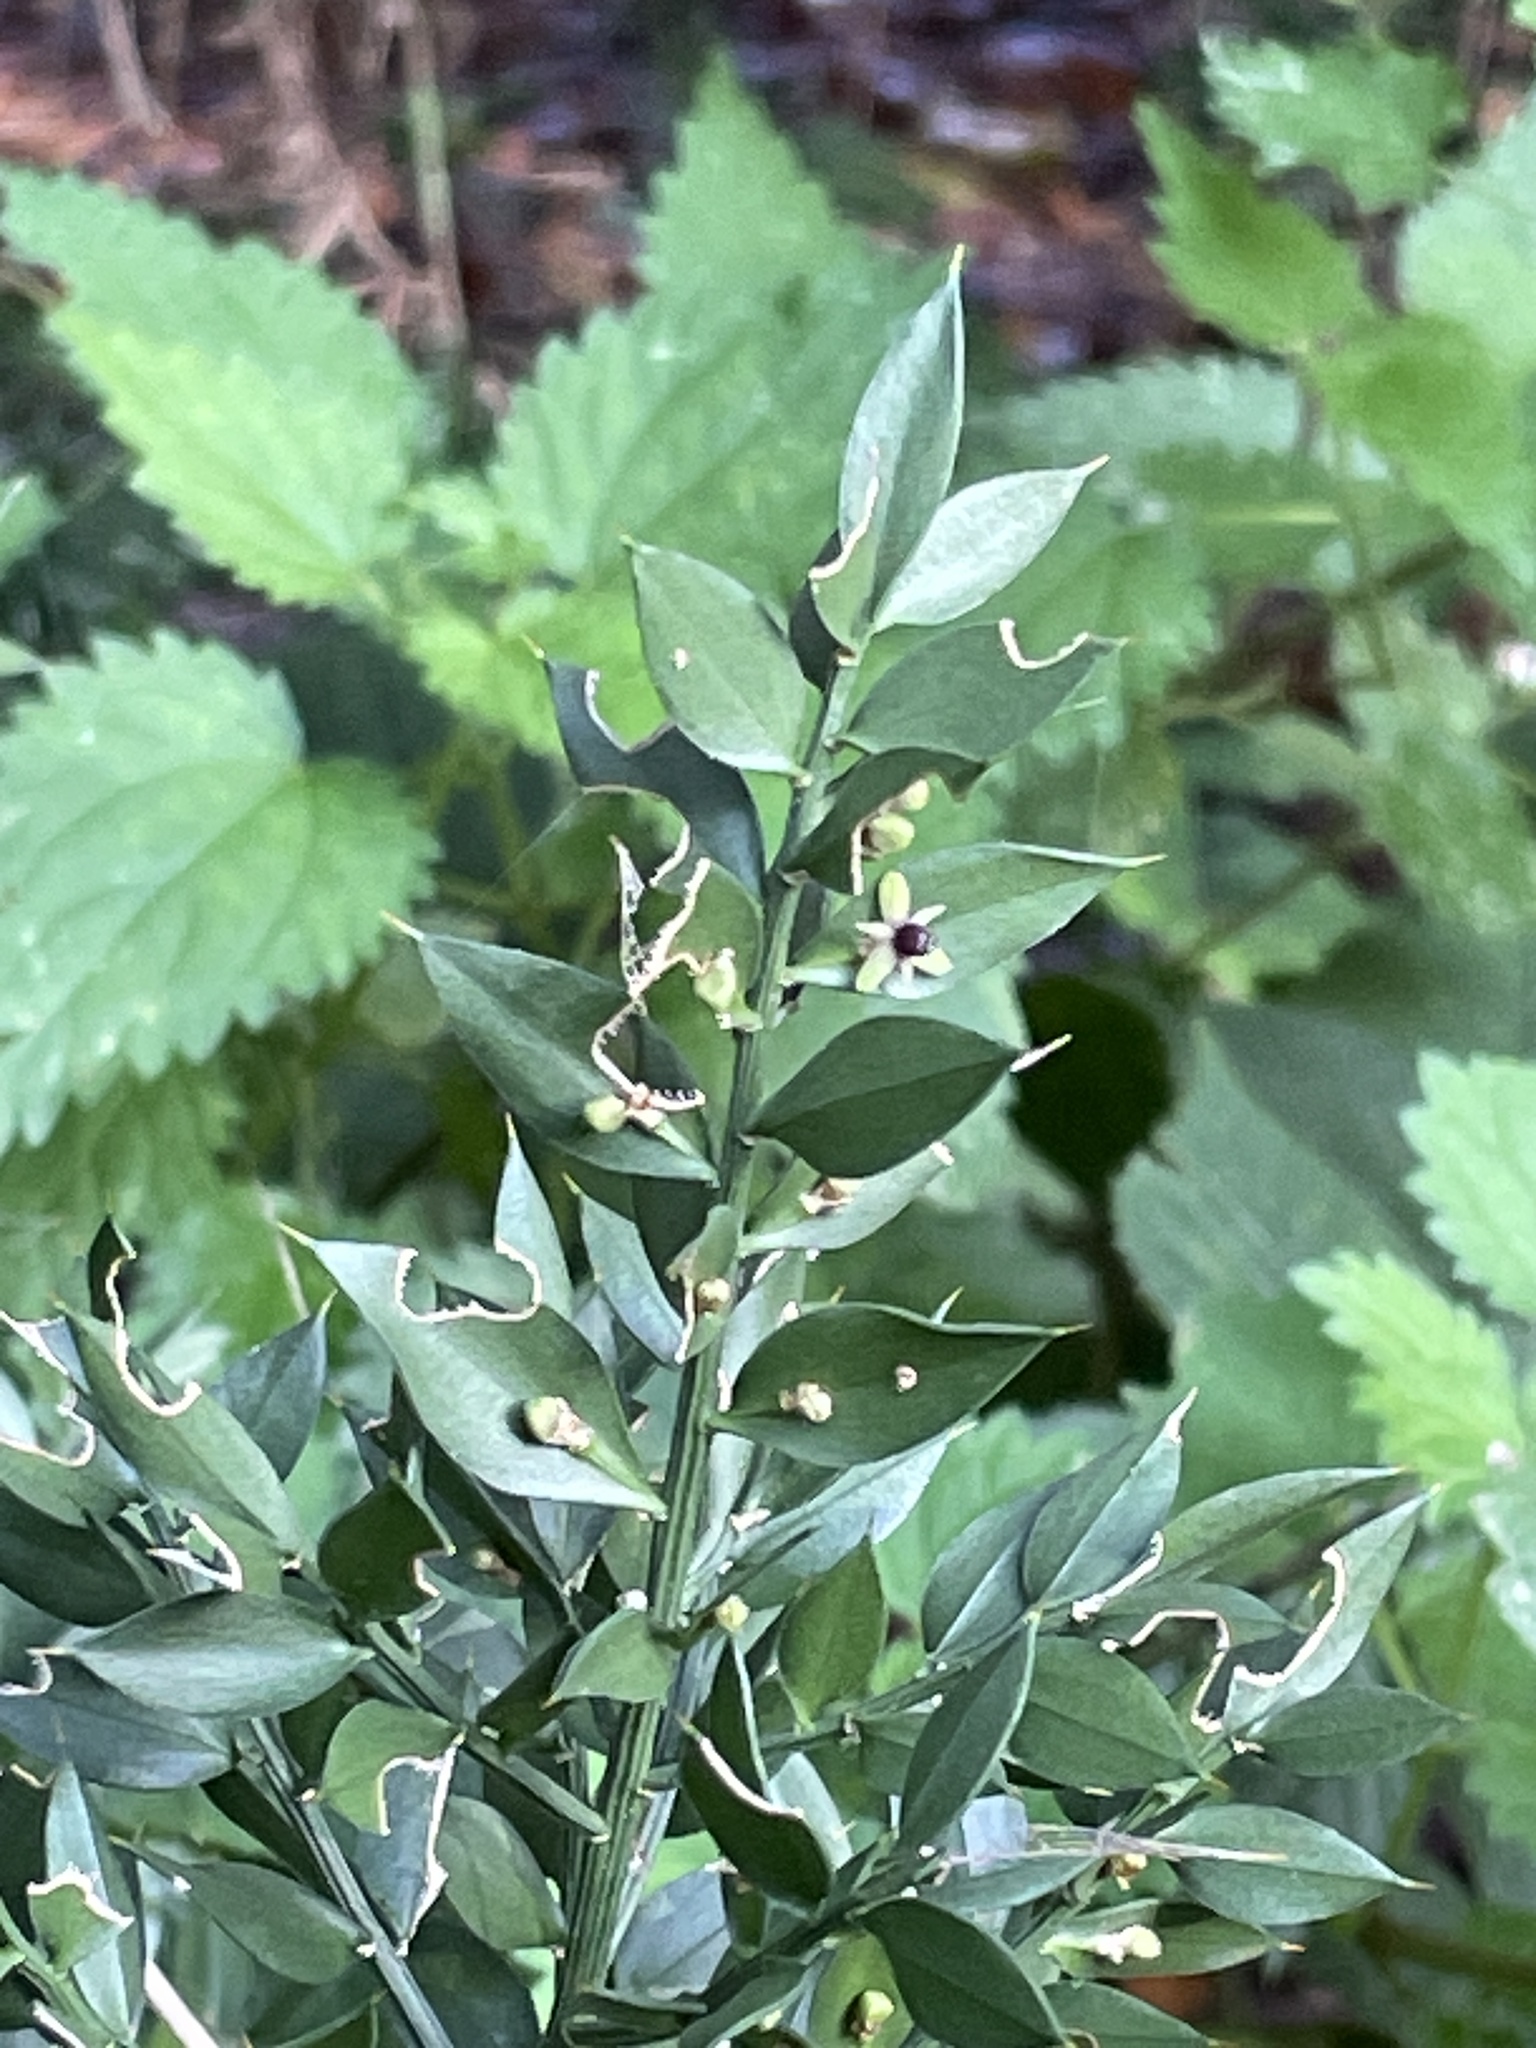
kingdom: Plantae
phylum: Tracheophyta
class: Liliopsida
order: Asparagales
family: Asparagaceae
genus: Ruscus
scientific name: Ruscus aculeatus
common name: Butcher's-broom
